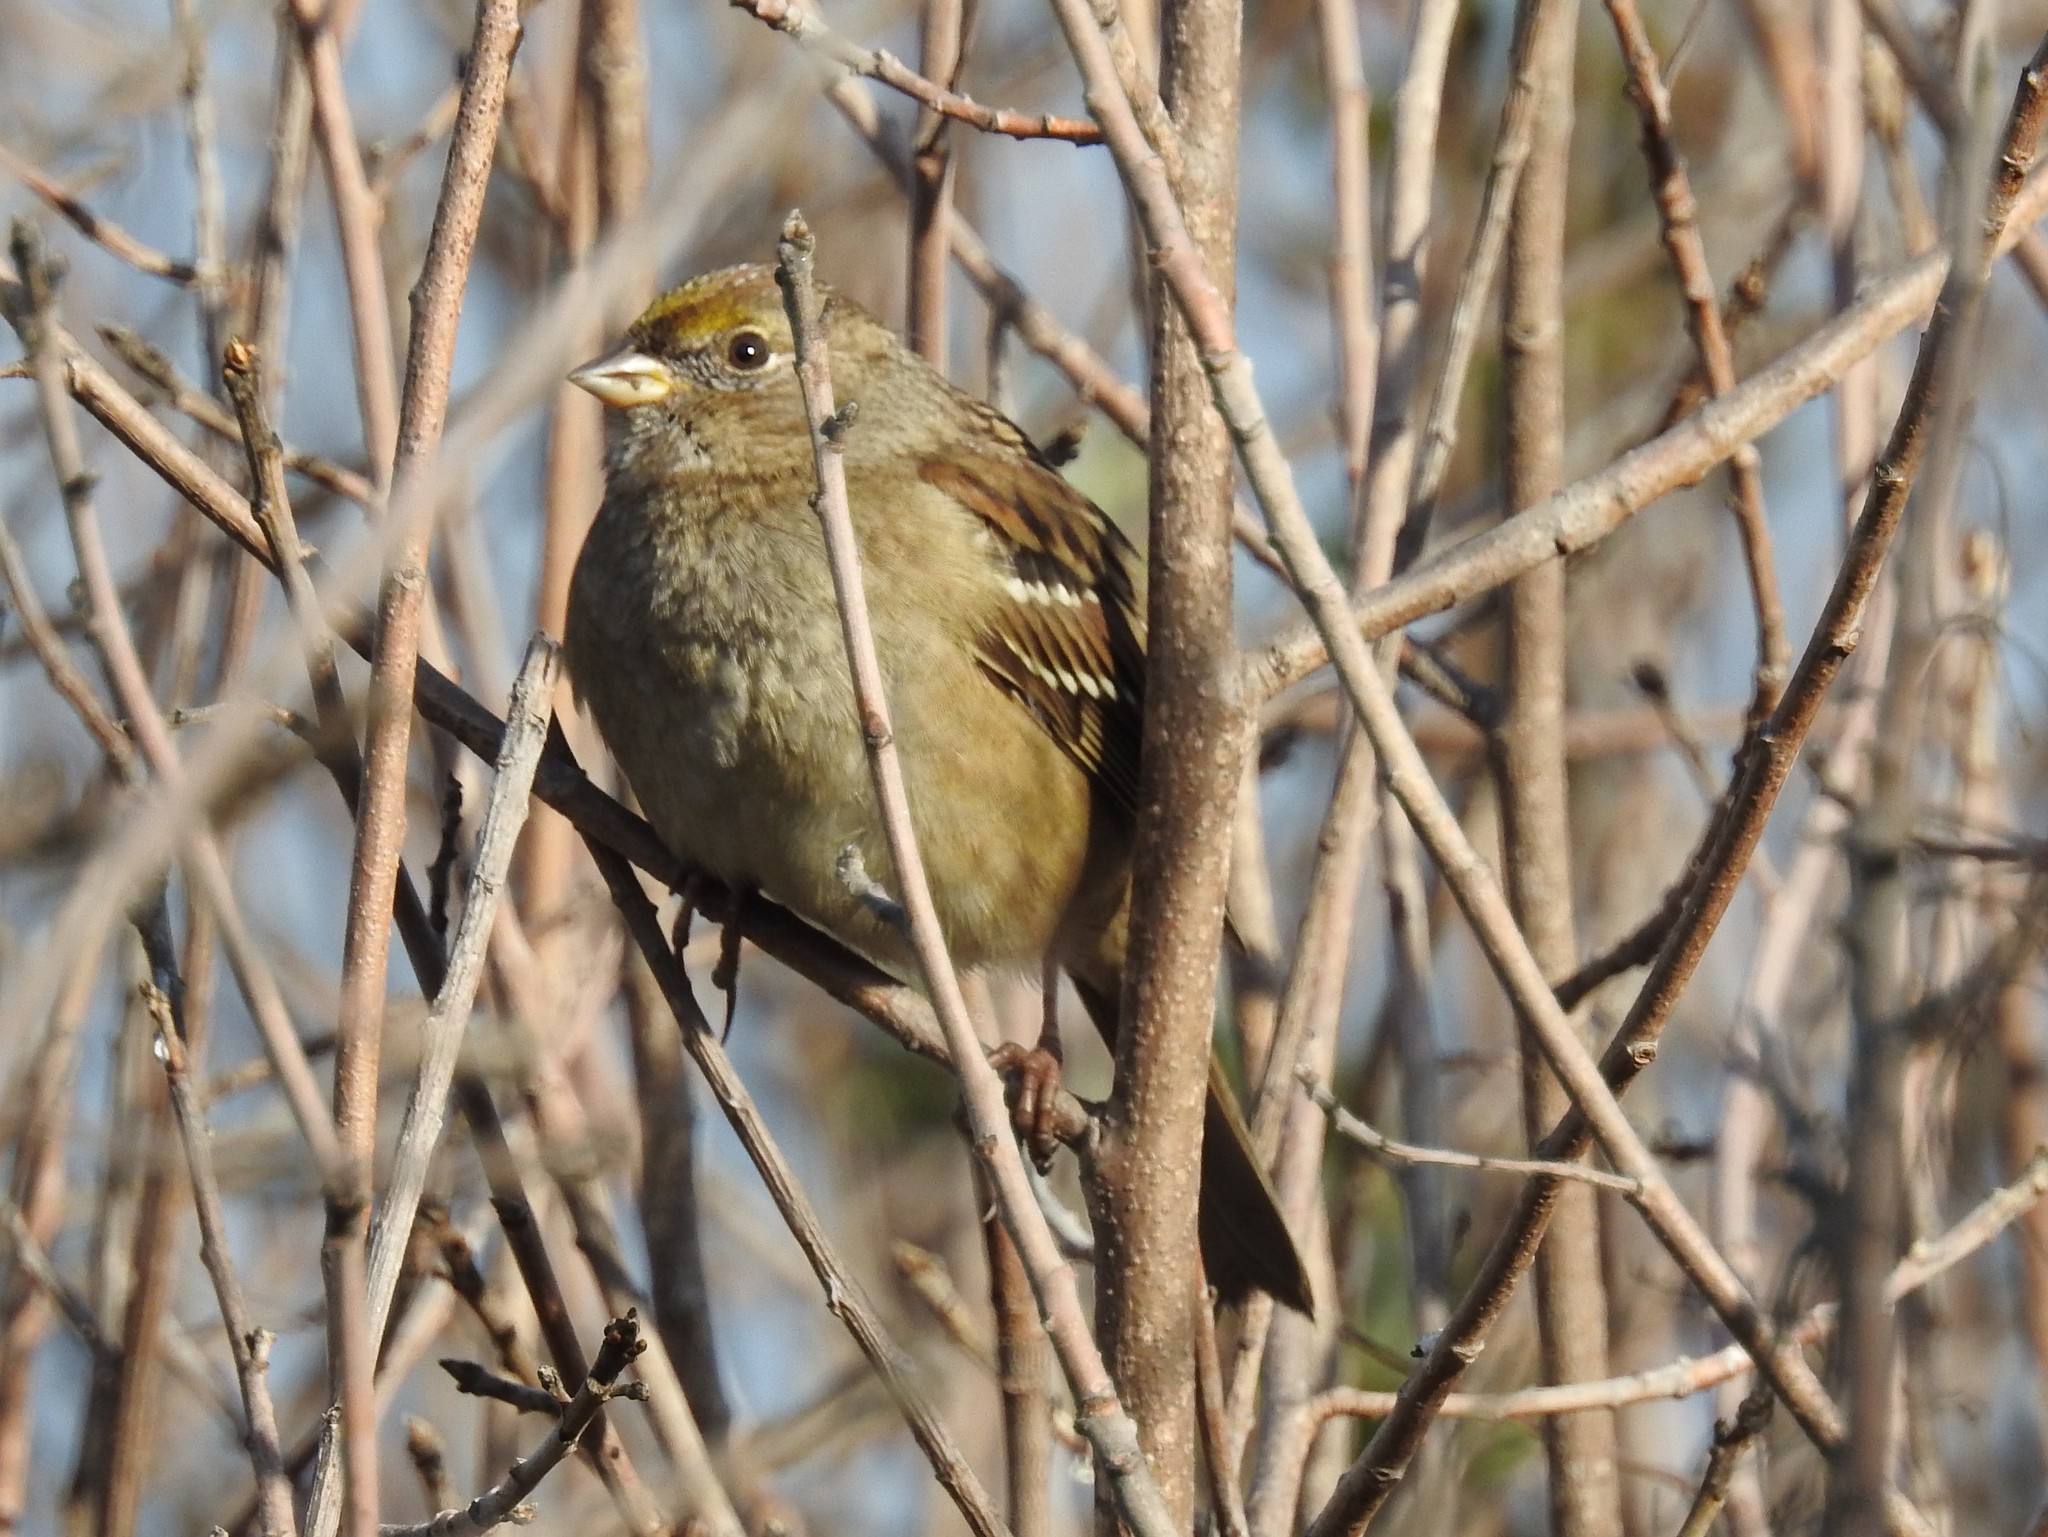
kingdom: Animalia
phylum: Chordata
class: Aves
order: Passeriformes
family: Passerellidae
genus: Zonotrichia
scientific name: Zonotrichia atricapilla
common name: Golden-crowned sparrow
